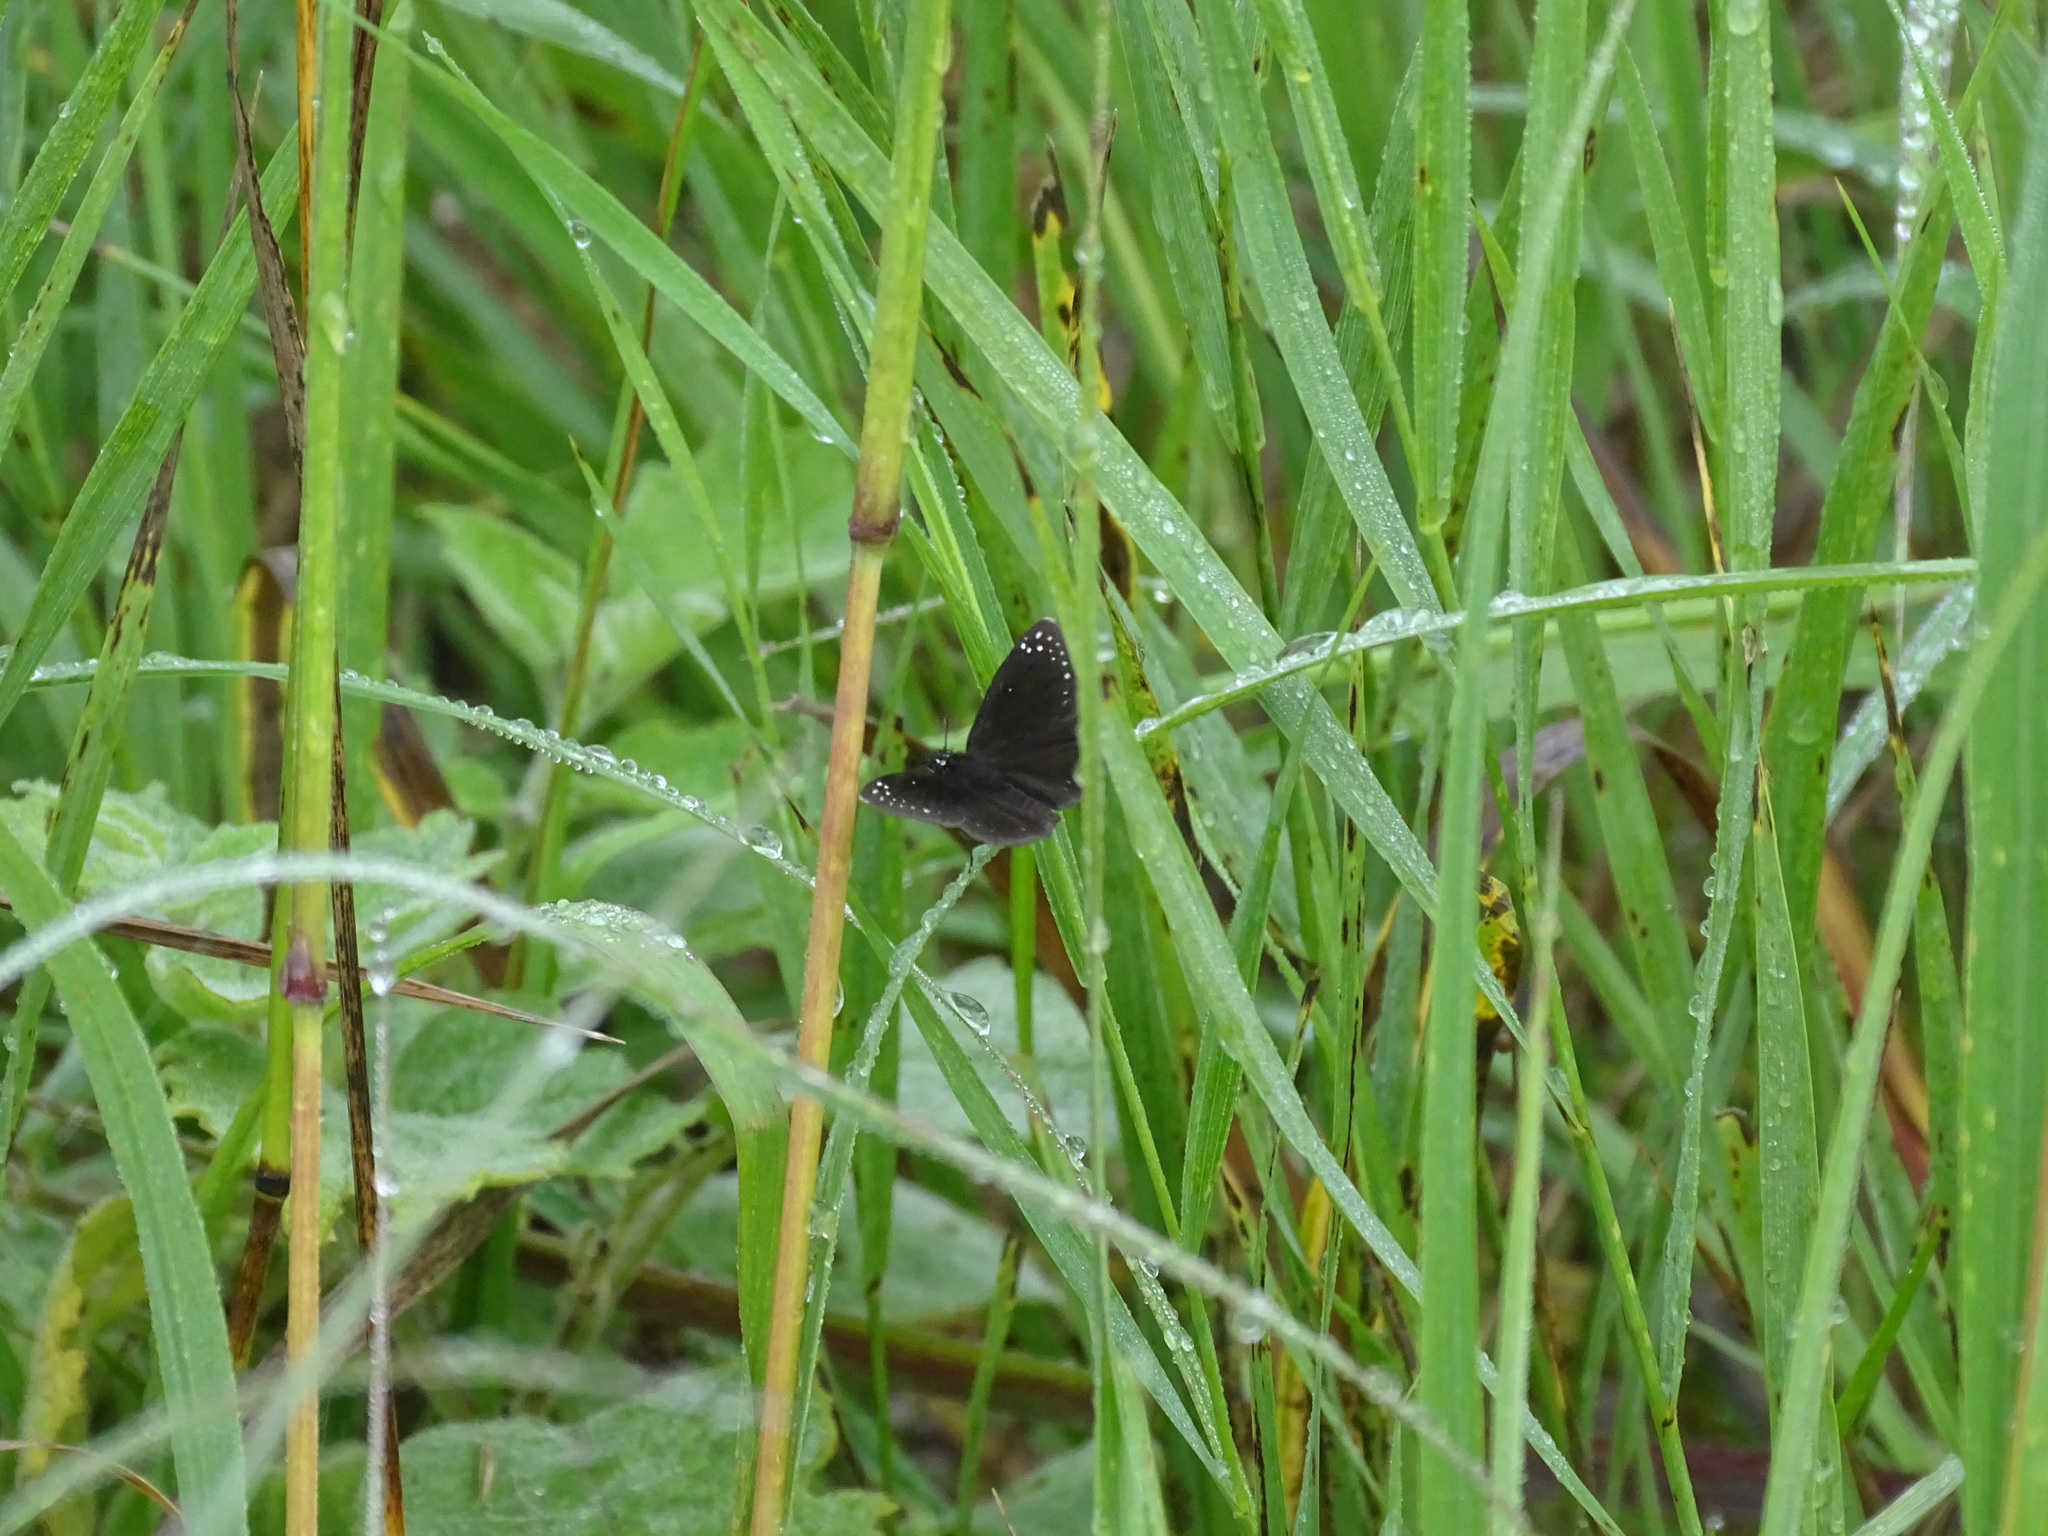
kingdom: Animalia
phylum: Arthropoda
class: Insecta
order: Lepidoptera
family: Hesperiidae
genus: Pholisora
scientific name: Pholisora catullus
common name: Common sootywing
